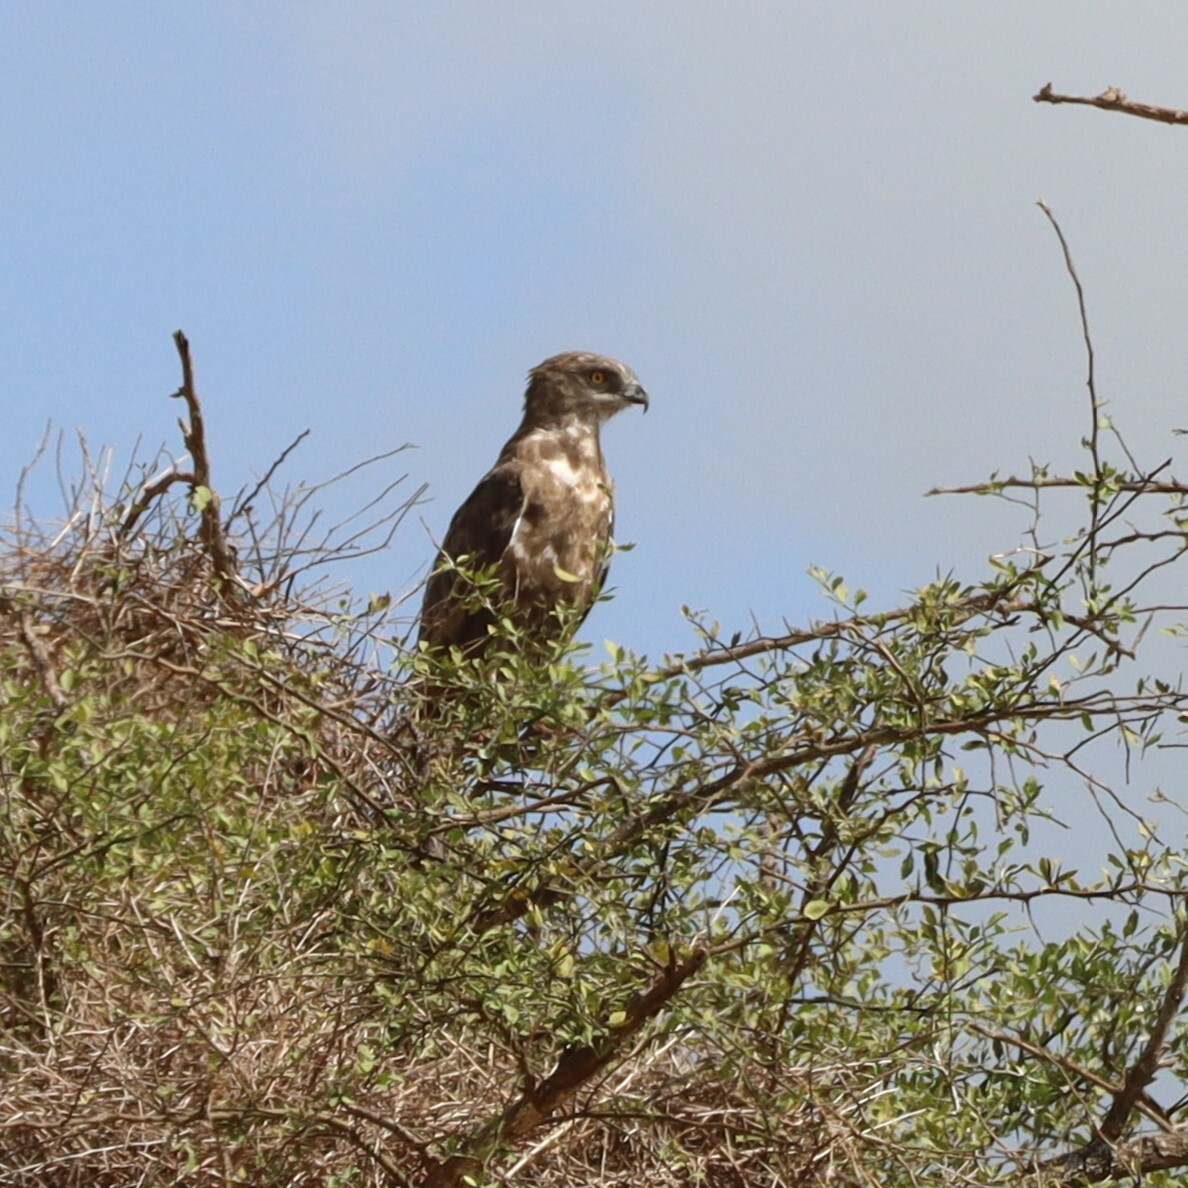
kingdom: Animalia
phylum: Chordata
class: Aves
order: Accipitriformes
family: Accipitridae
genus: Circaetus
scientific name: Circaetus cinereus
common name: Brown snake eagle
